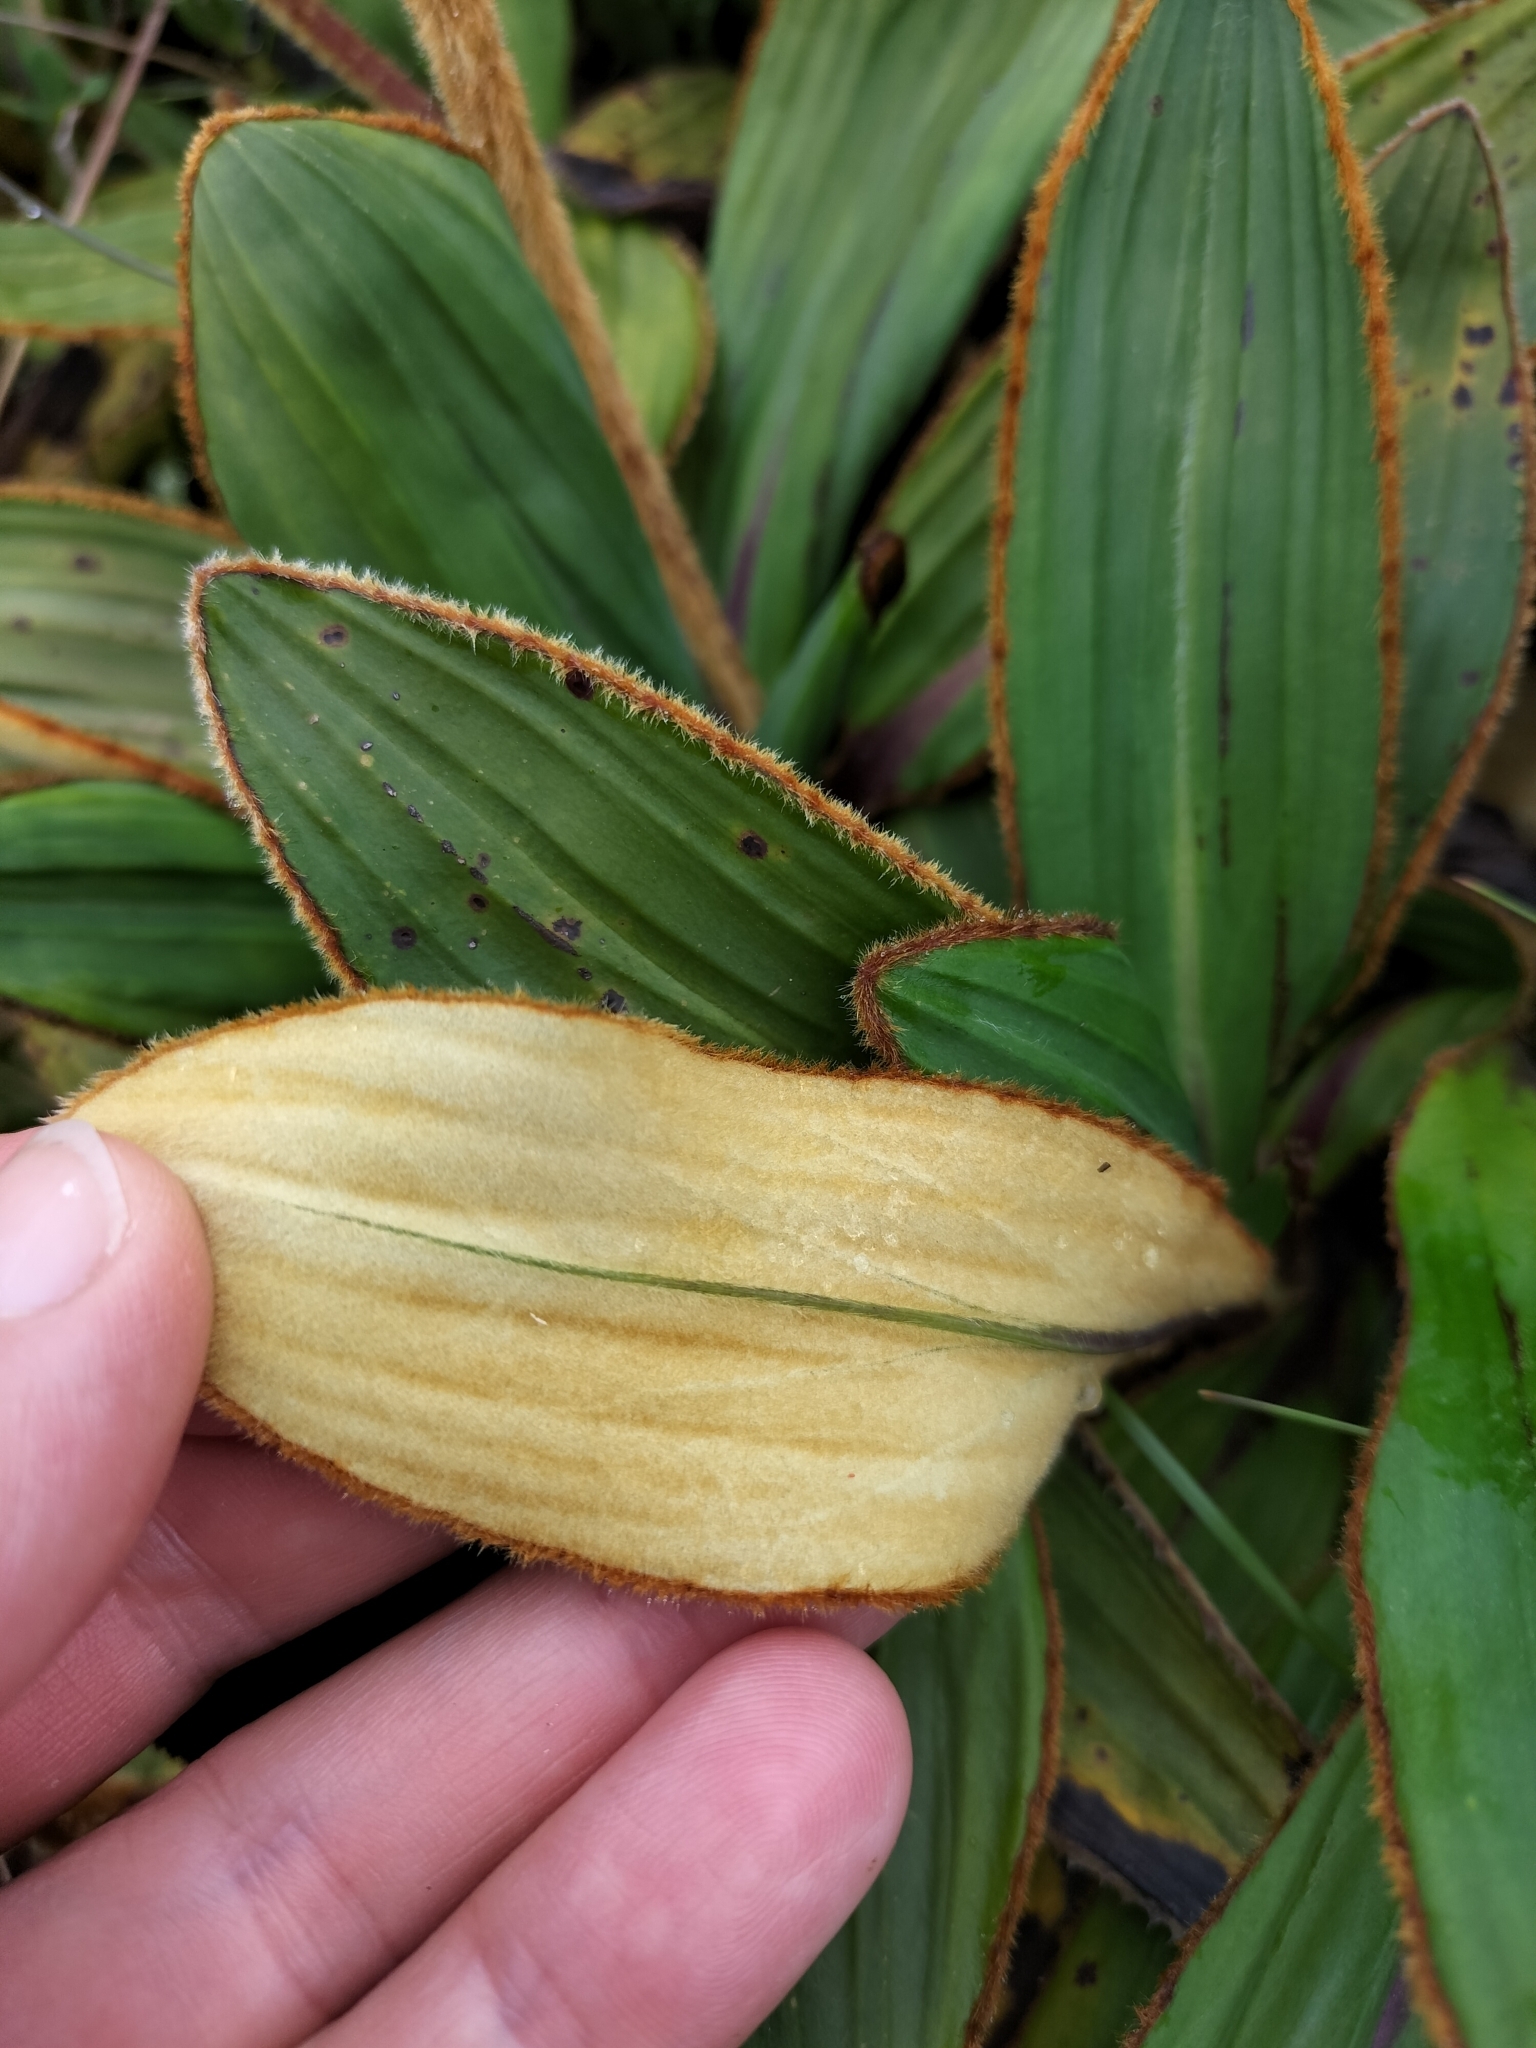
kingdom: Plantae
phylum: Tracheophyta
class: Magnoliopsida
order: Asterales
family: Asteraceae
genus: Celmisia
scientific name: Celmisia traversii
